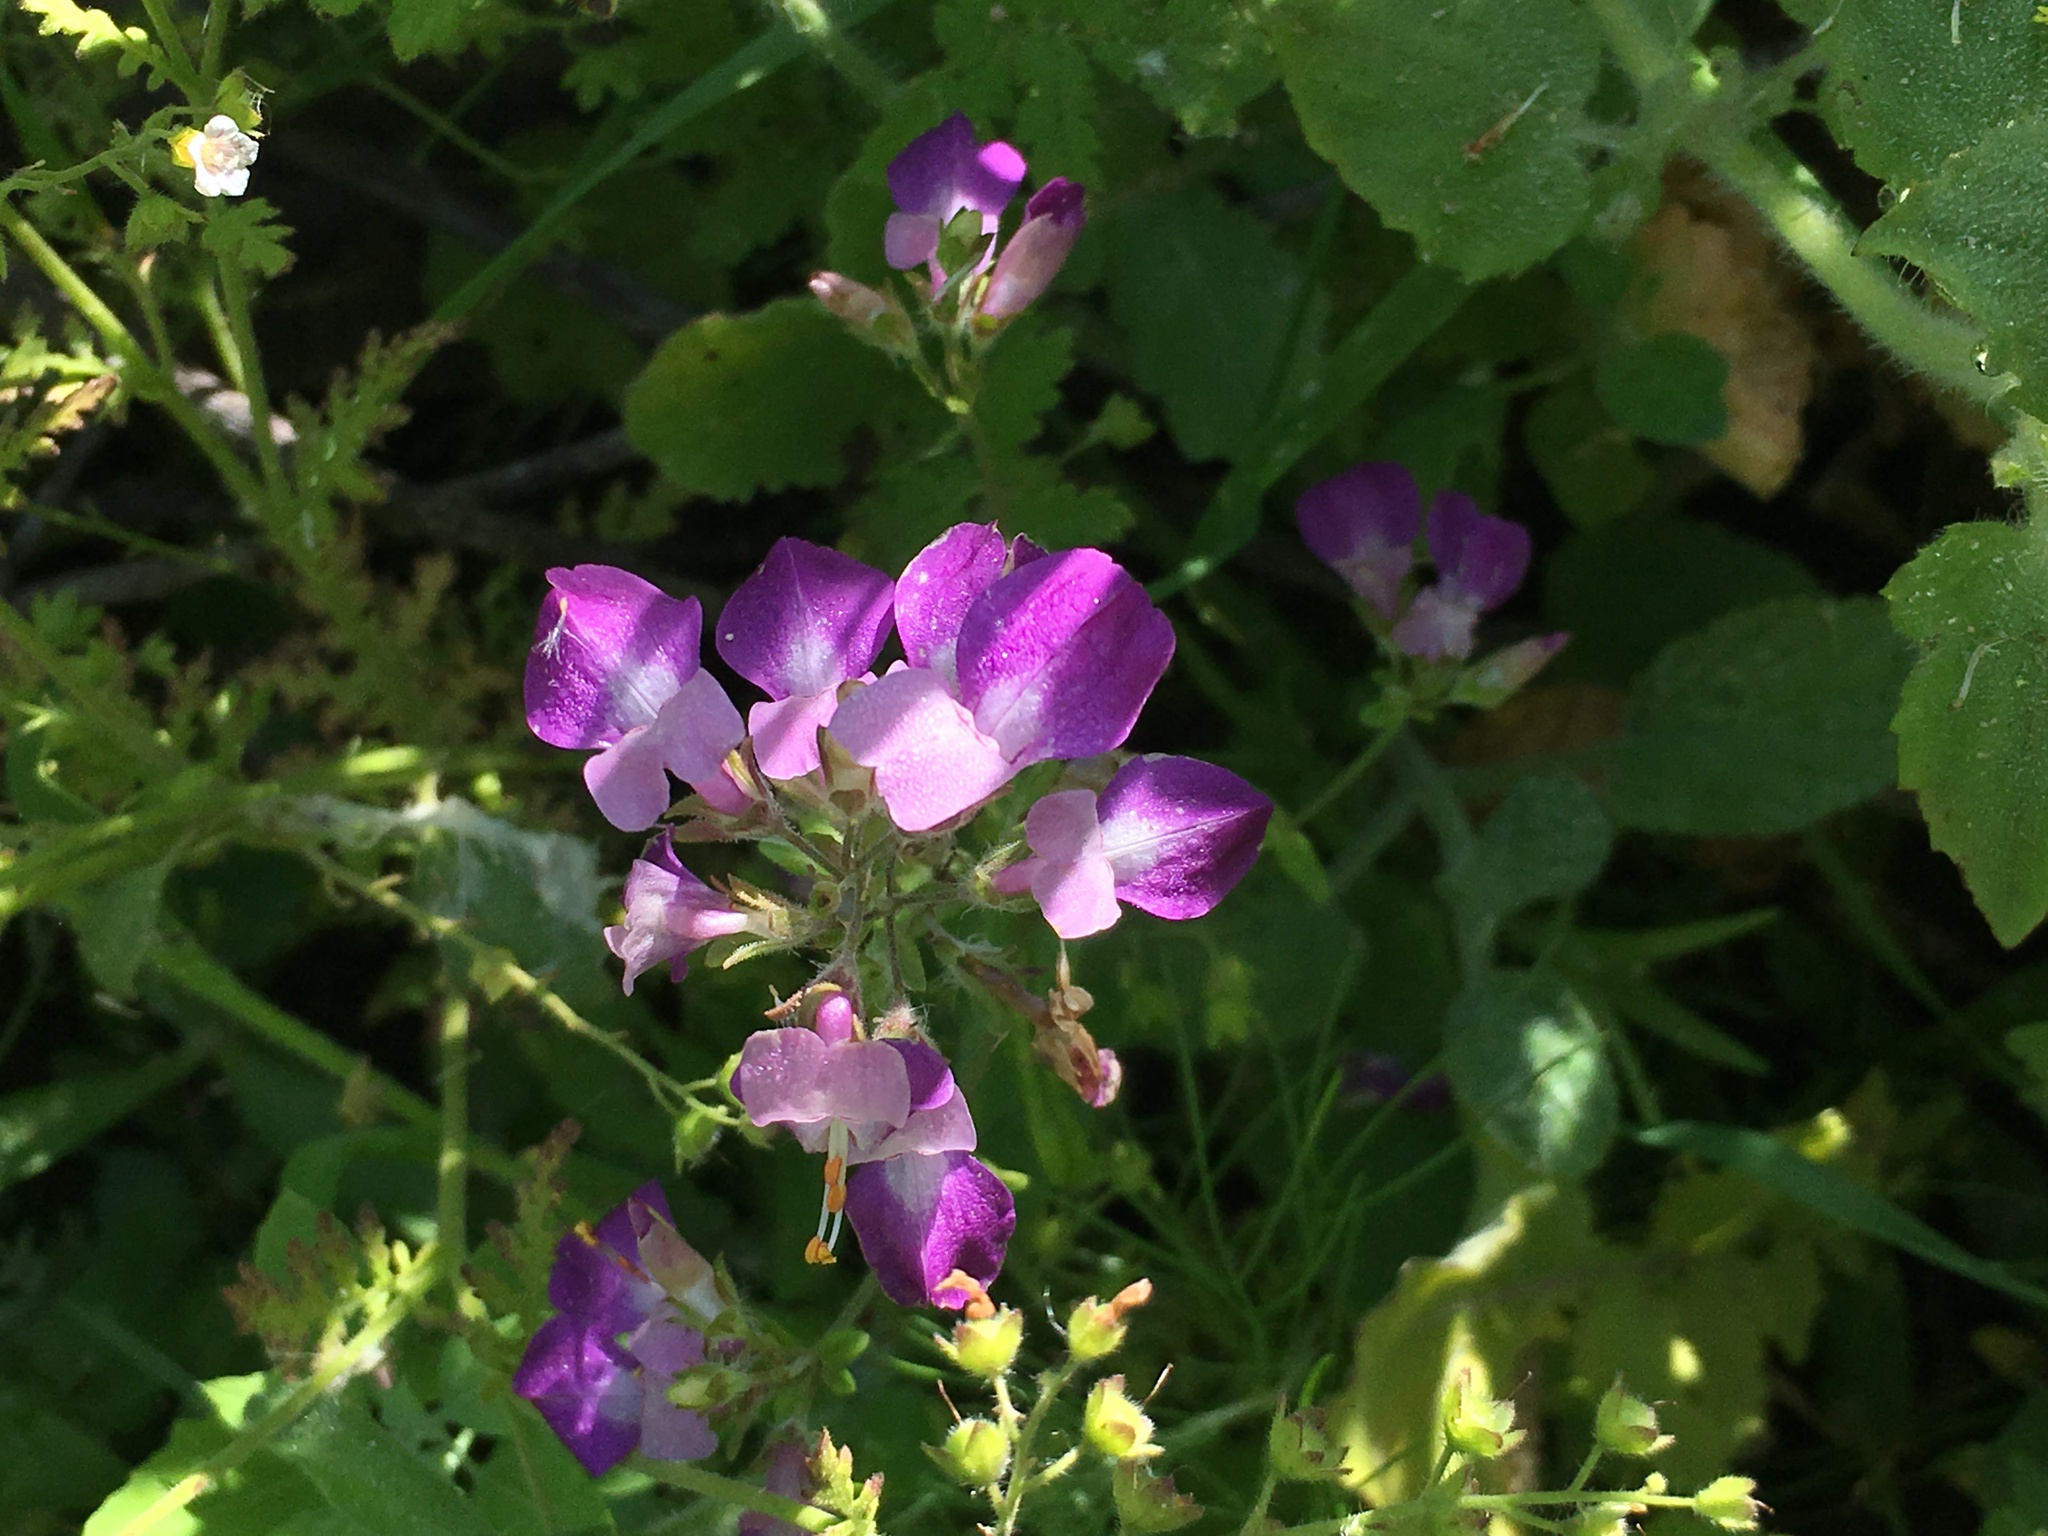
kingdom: Plantae
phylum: Tracheophyta
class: Magnoliopsida
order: Lamiales
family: Plantaginaceae
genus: Collinsia
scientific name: Collinsia heterophylla
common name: Chinese-houses
